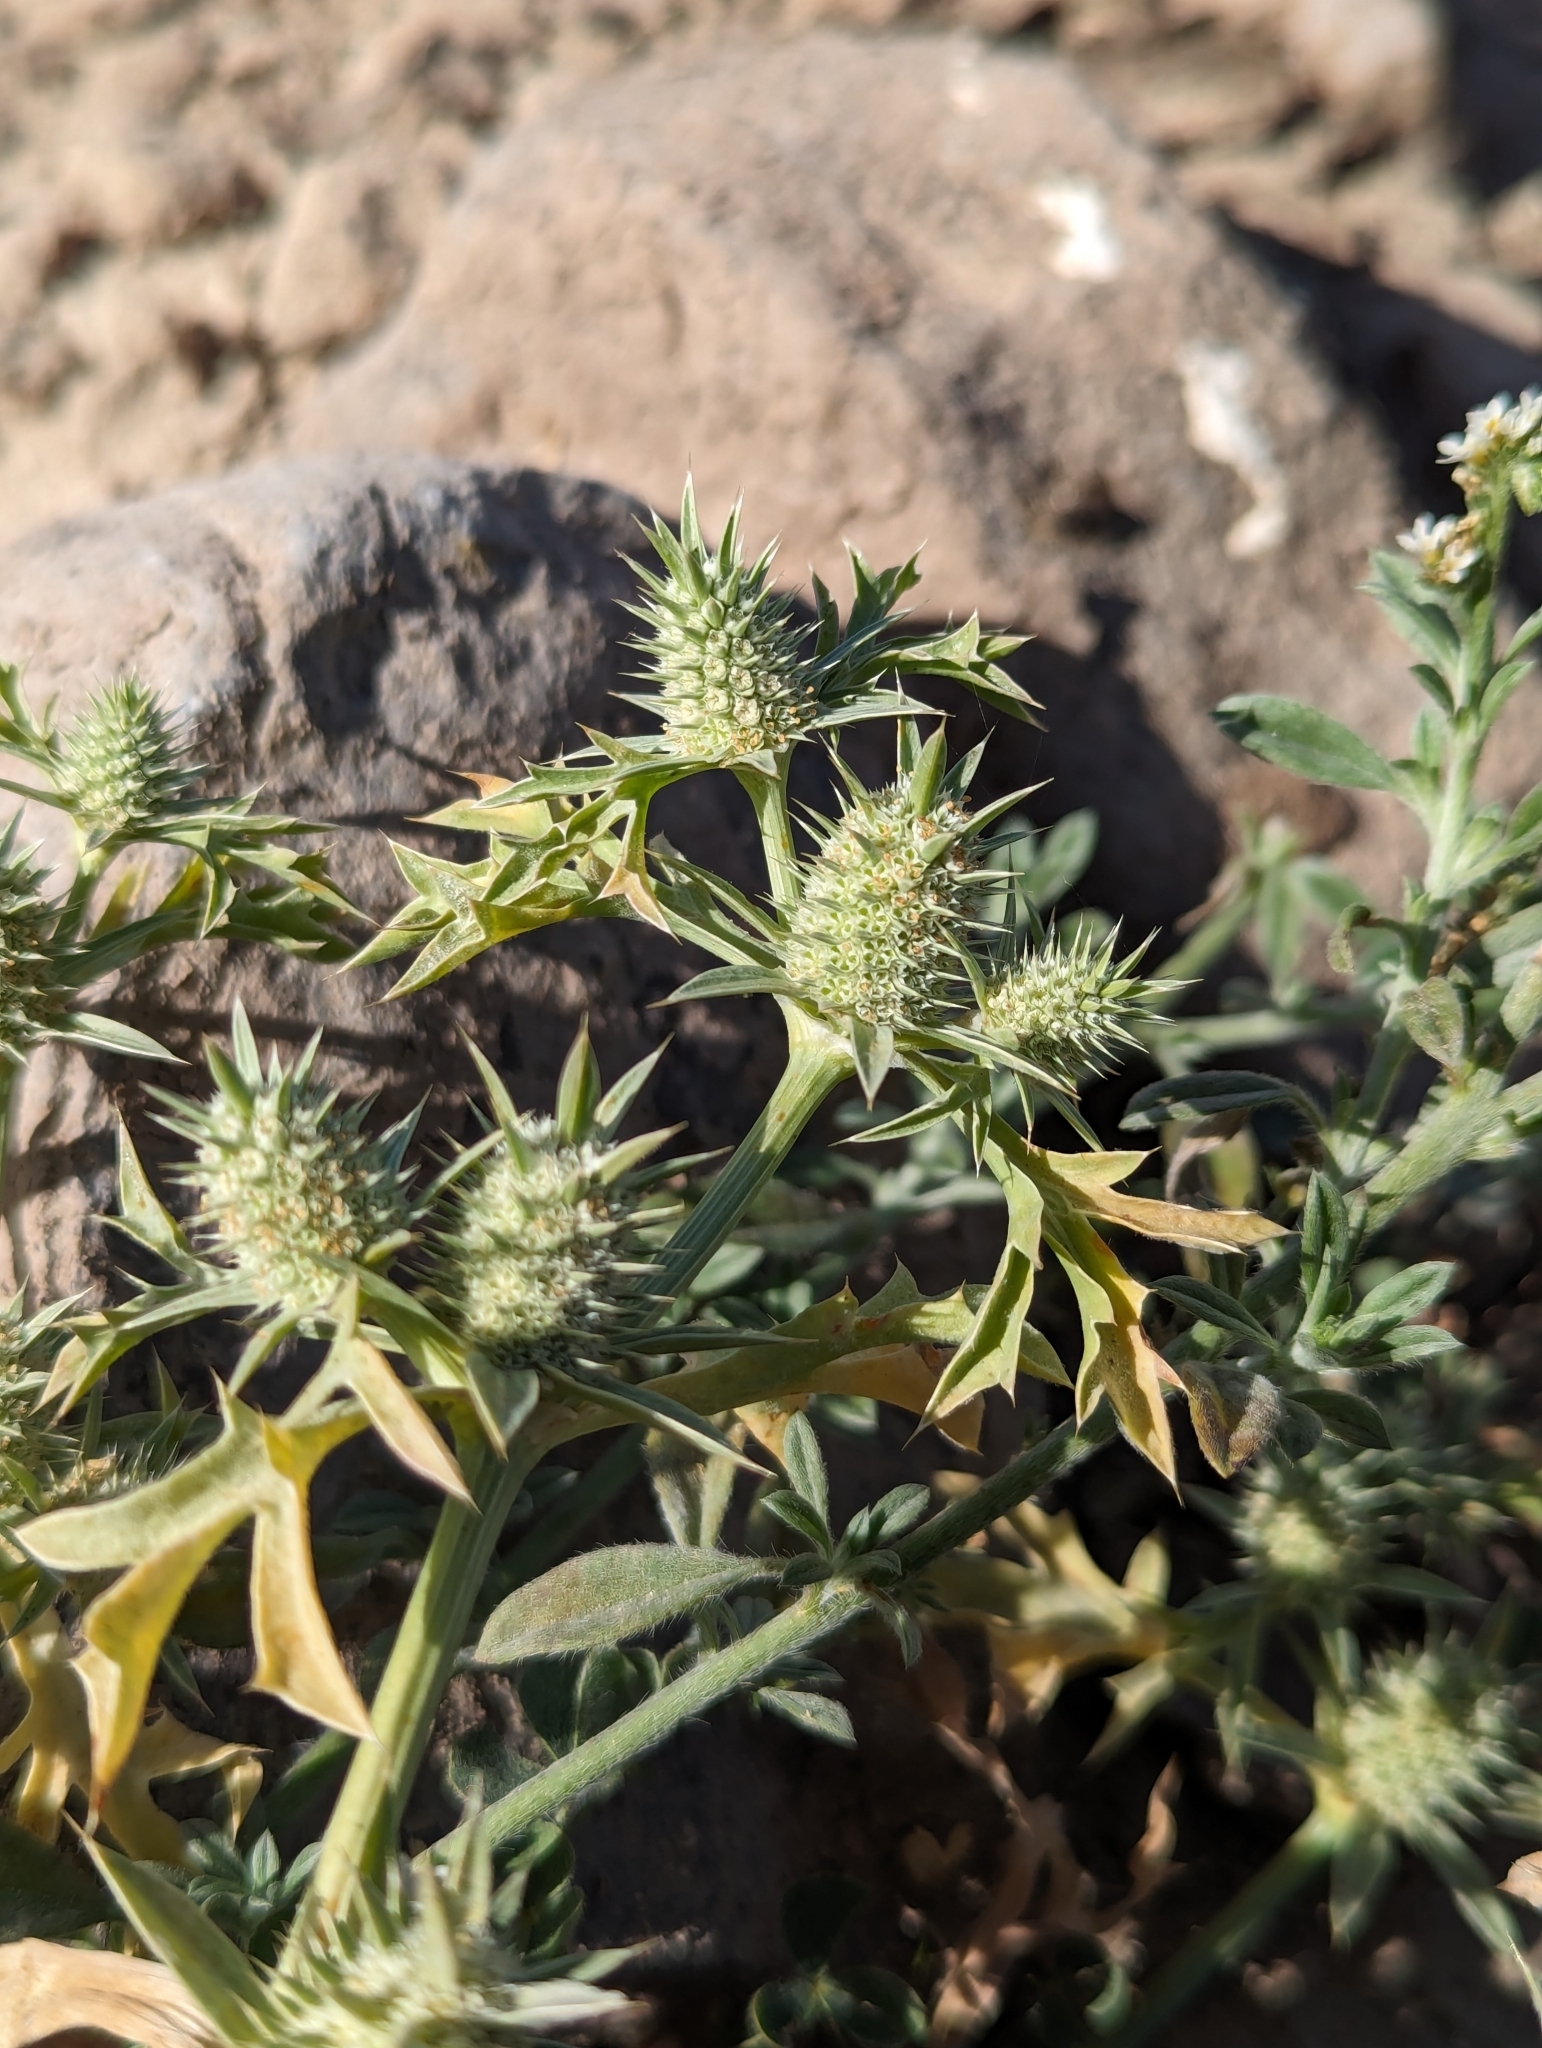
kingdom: Plantae
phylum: Tracheophyta
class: Magnoliopsida
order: Apiales
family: Apiaceae
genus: Eryngium
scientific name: Eryngium nasturtiifolium
